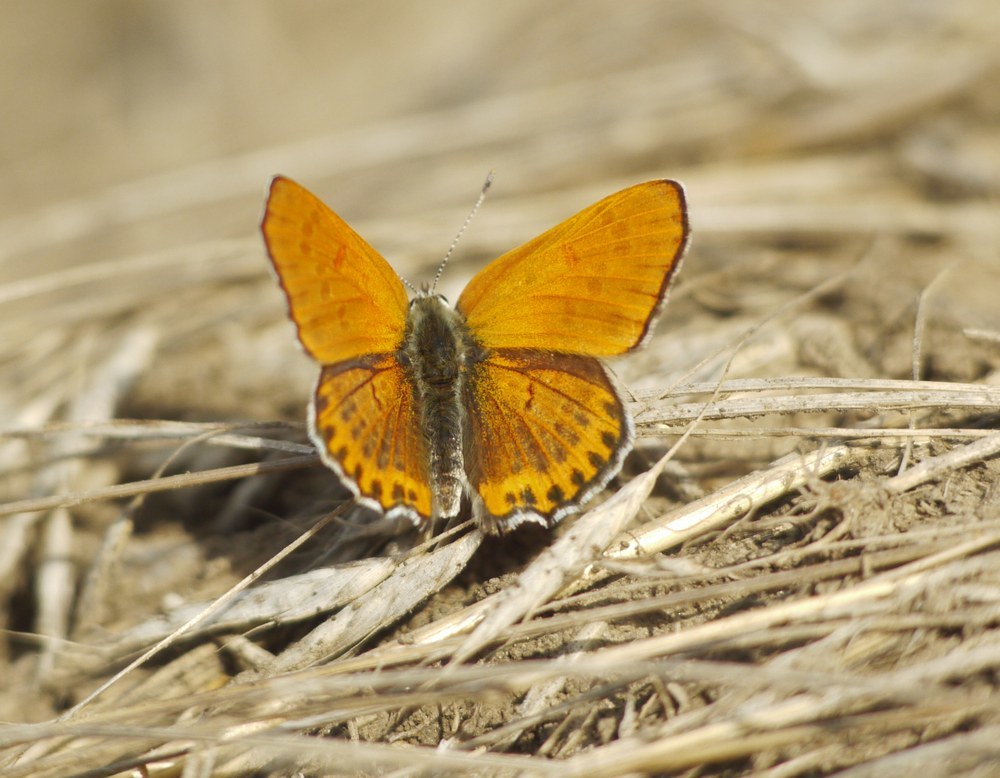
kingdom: Animalia
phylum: Arthropoda
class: Insecta
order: Lepidoptera
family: Lycaenidae
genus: Thersamonia
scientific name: Thersamonia thersamon
